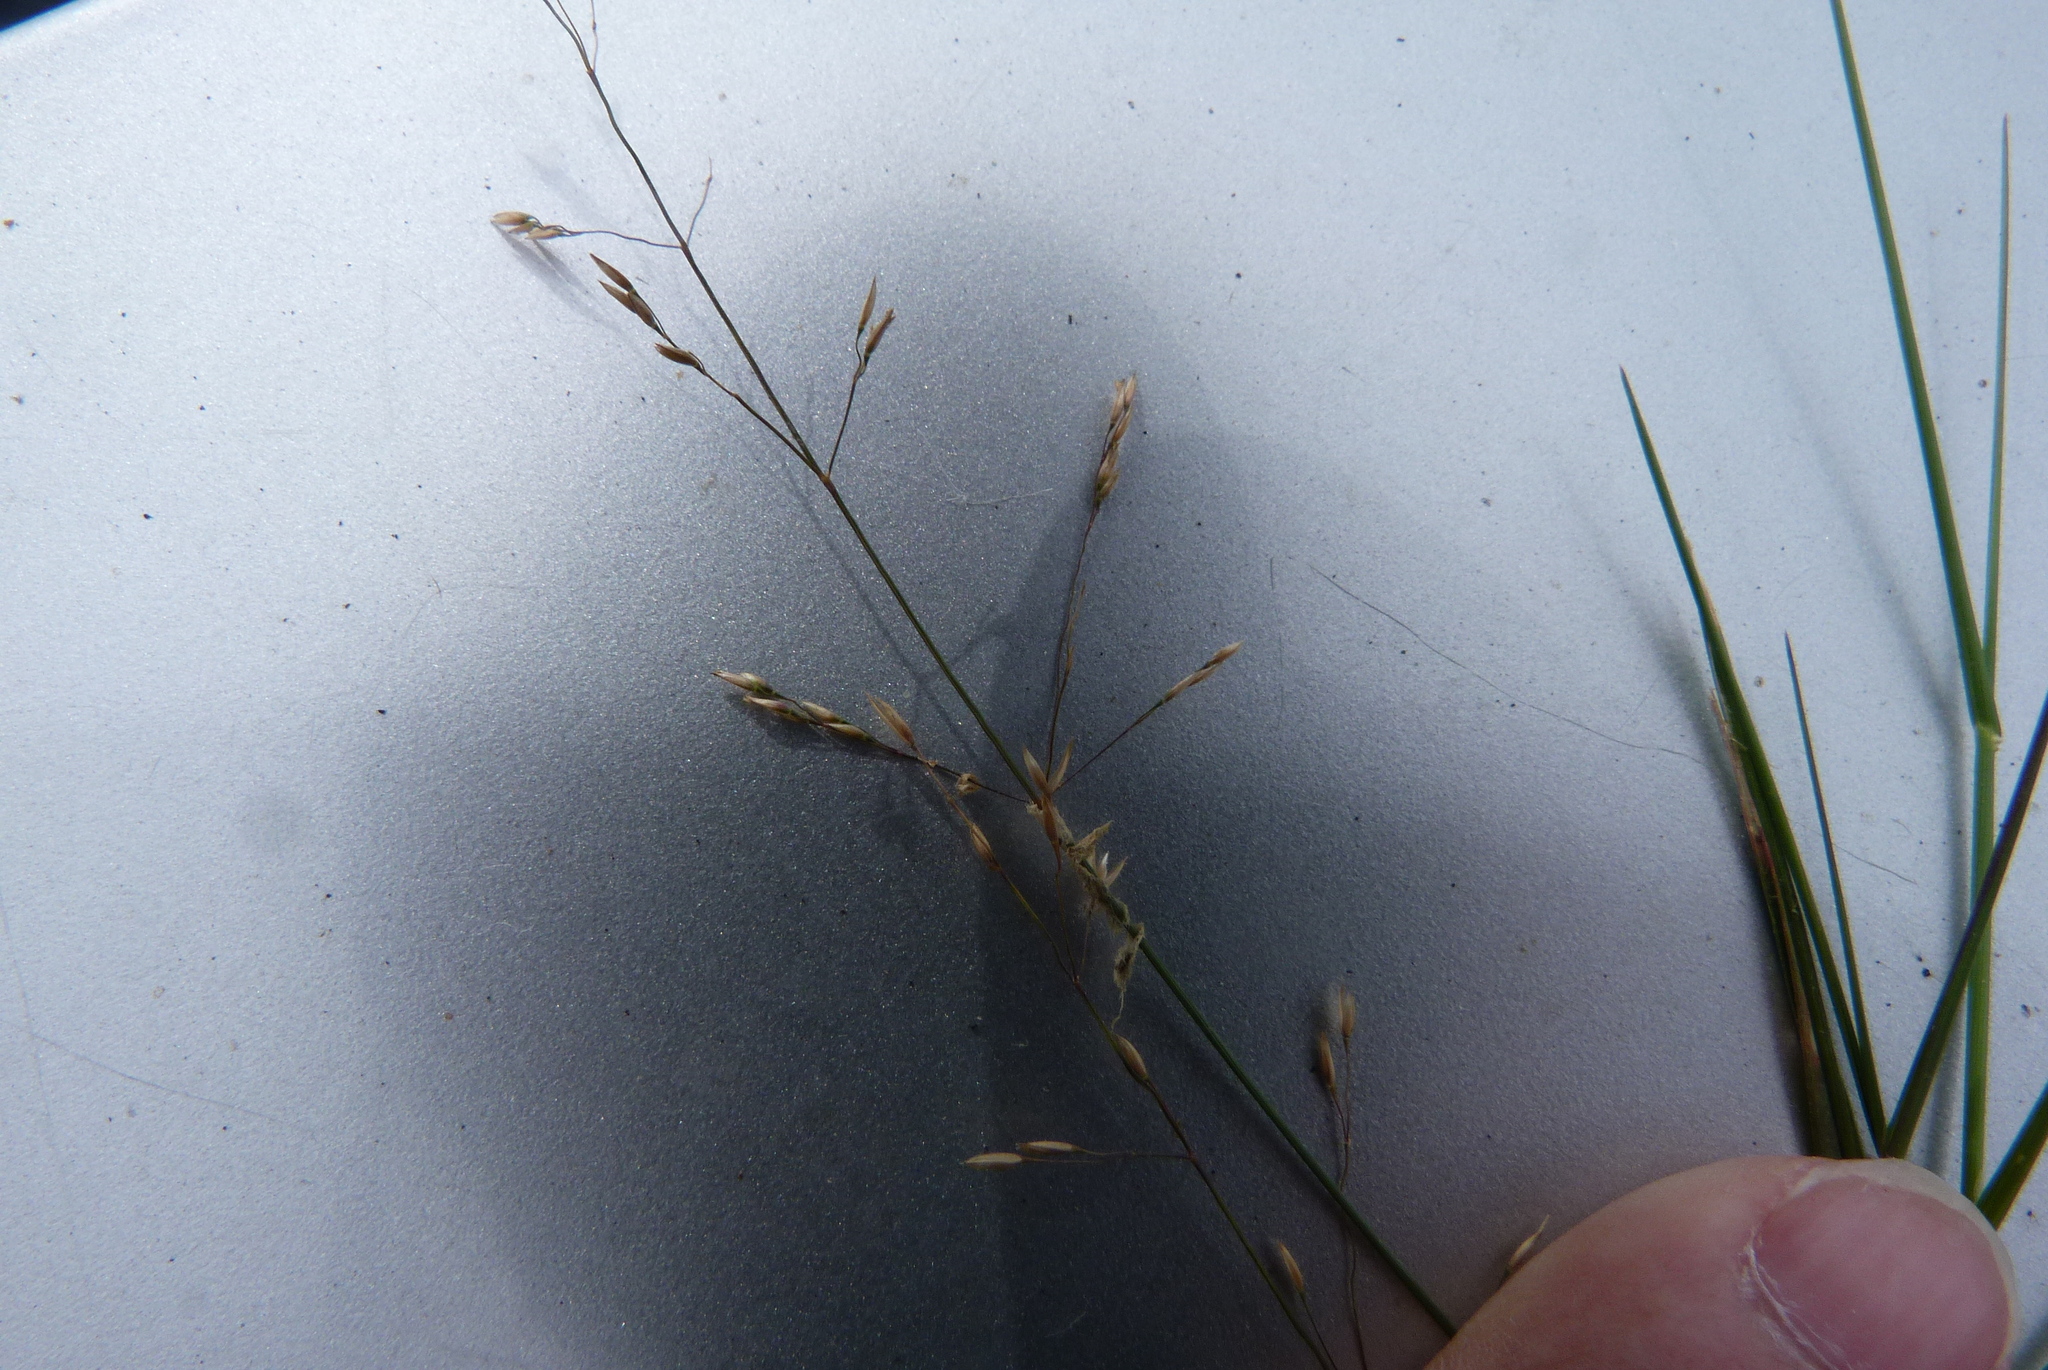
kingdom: Plantae
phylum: Tracheophyta
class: Liliopsida
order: Poales
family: Poaceae
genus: Agrostis
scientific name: Agrostis castellana
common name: Highland bent
